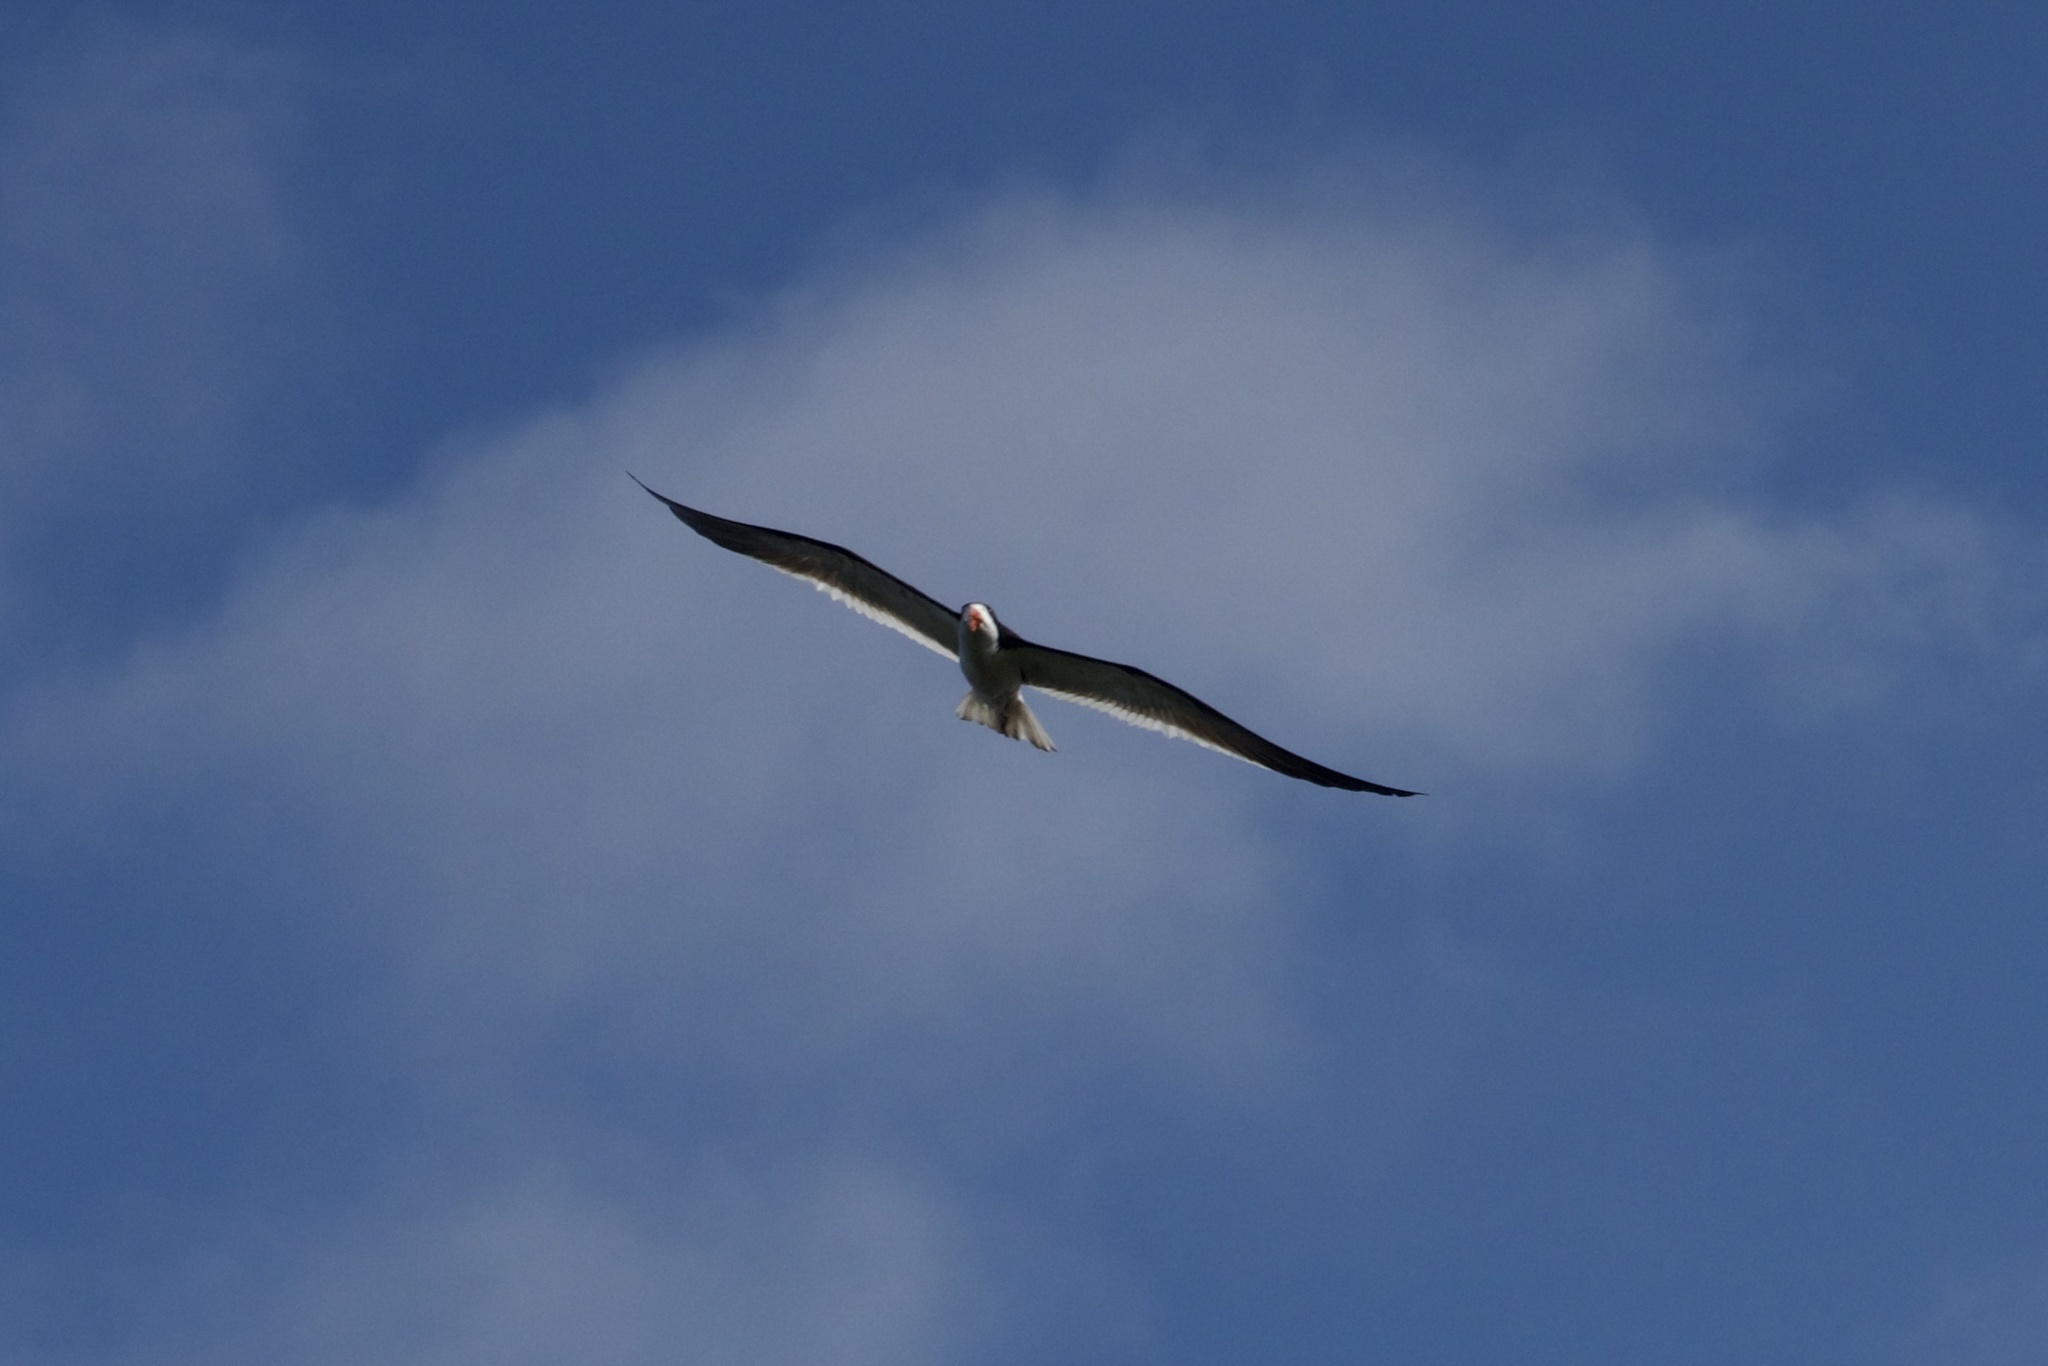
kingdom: Animalia
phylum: Chordata
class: Aves
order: Charadriiformes
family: Laridae
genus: Rynchops
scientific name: Rynchops niger
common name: Black skimmer
